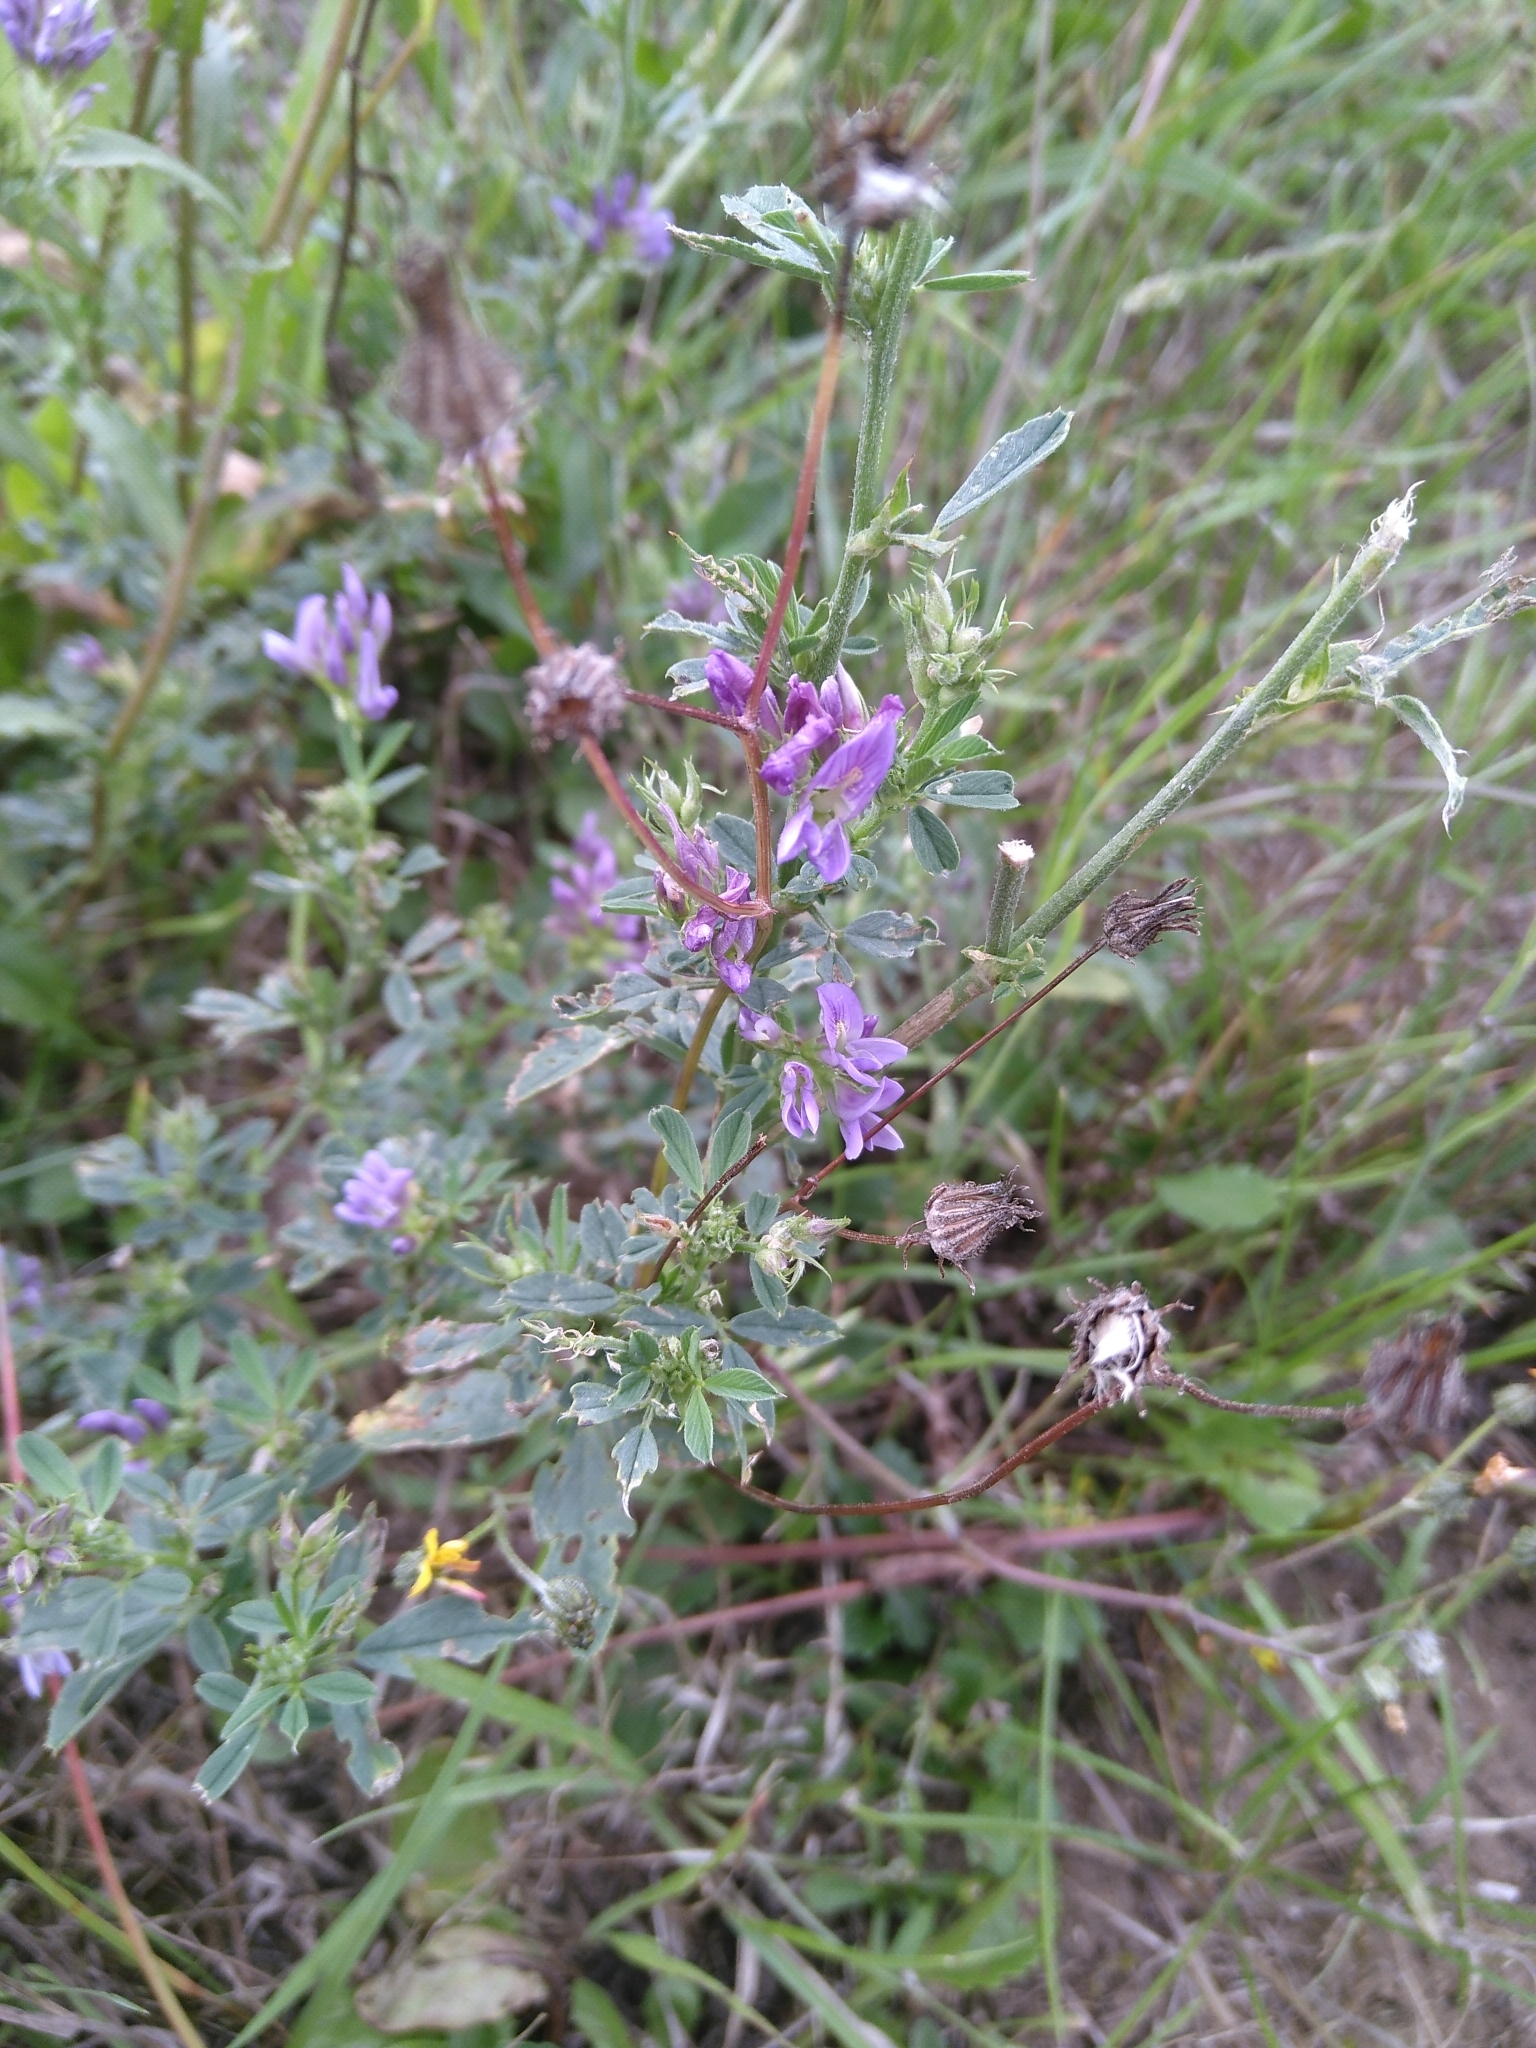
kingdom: Plantae
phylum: Tracheophyta
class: Magnoliopsida
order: Fabales
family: Fabaceae
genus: Medicago
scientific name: Medicago sativa
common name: Alfalfa
